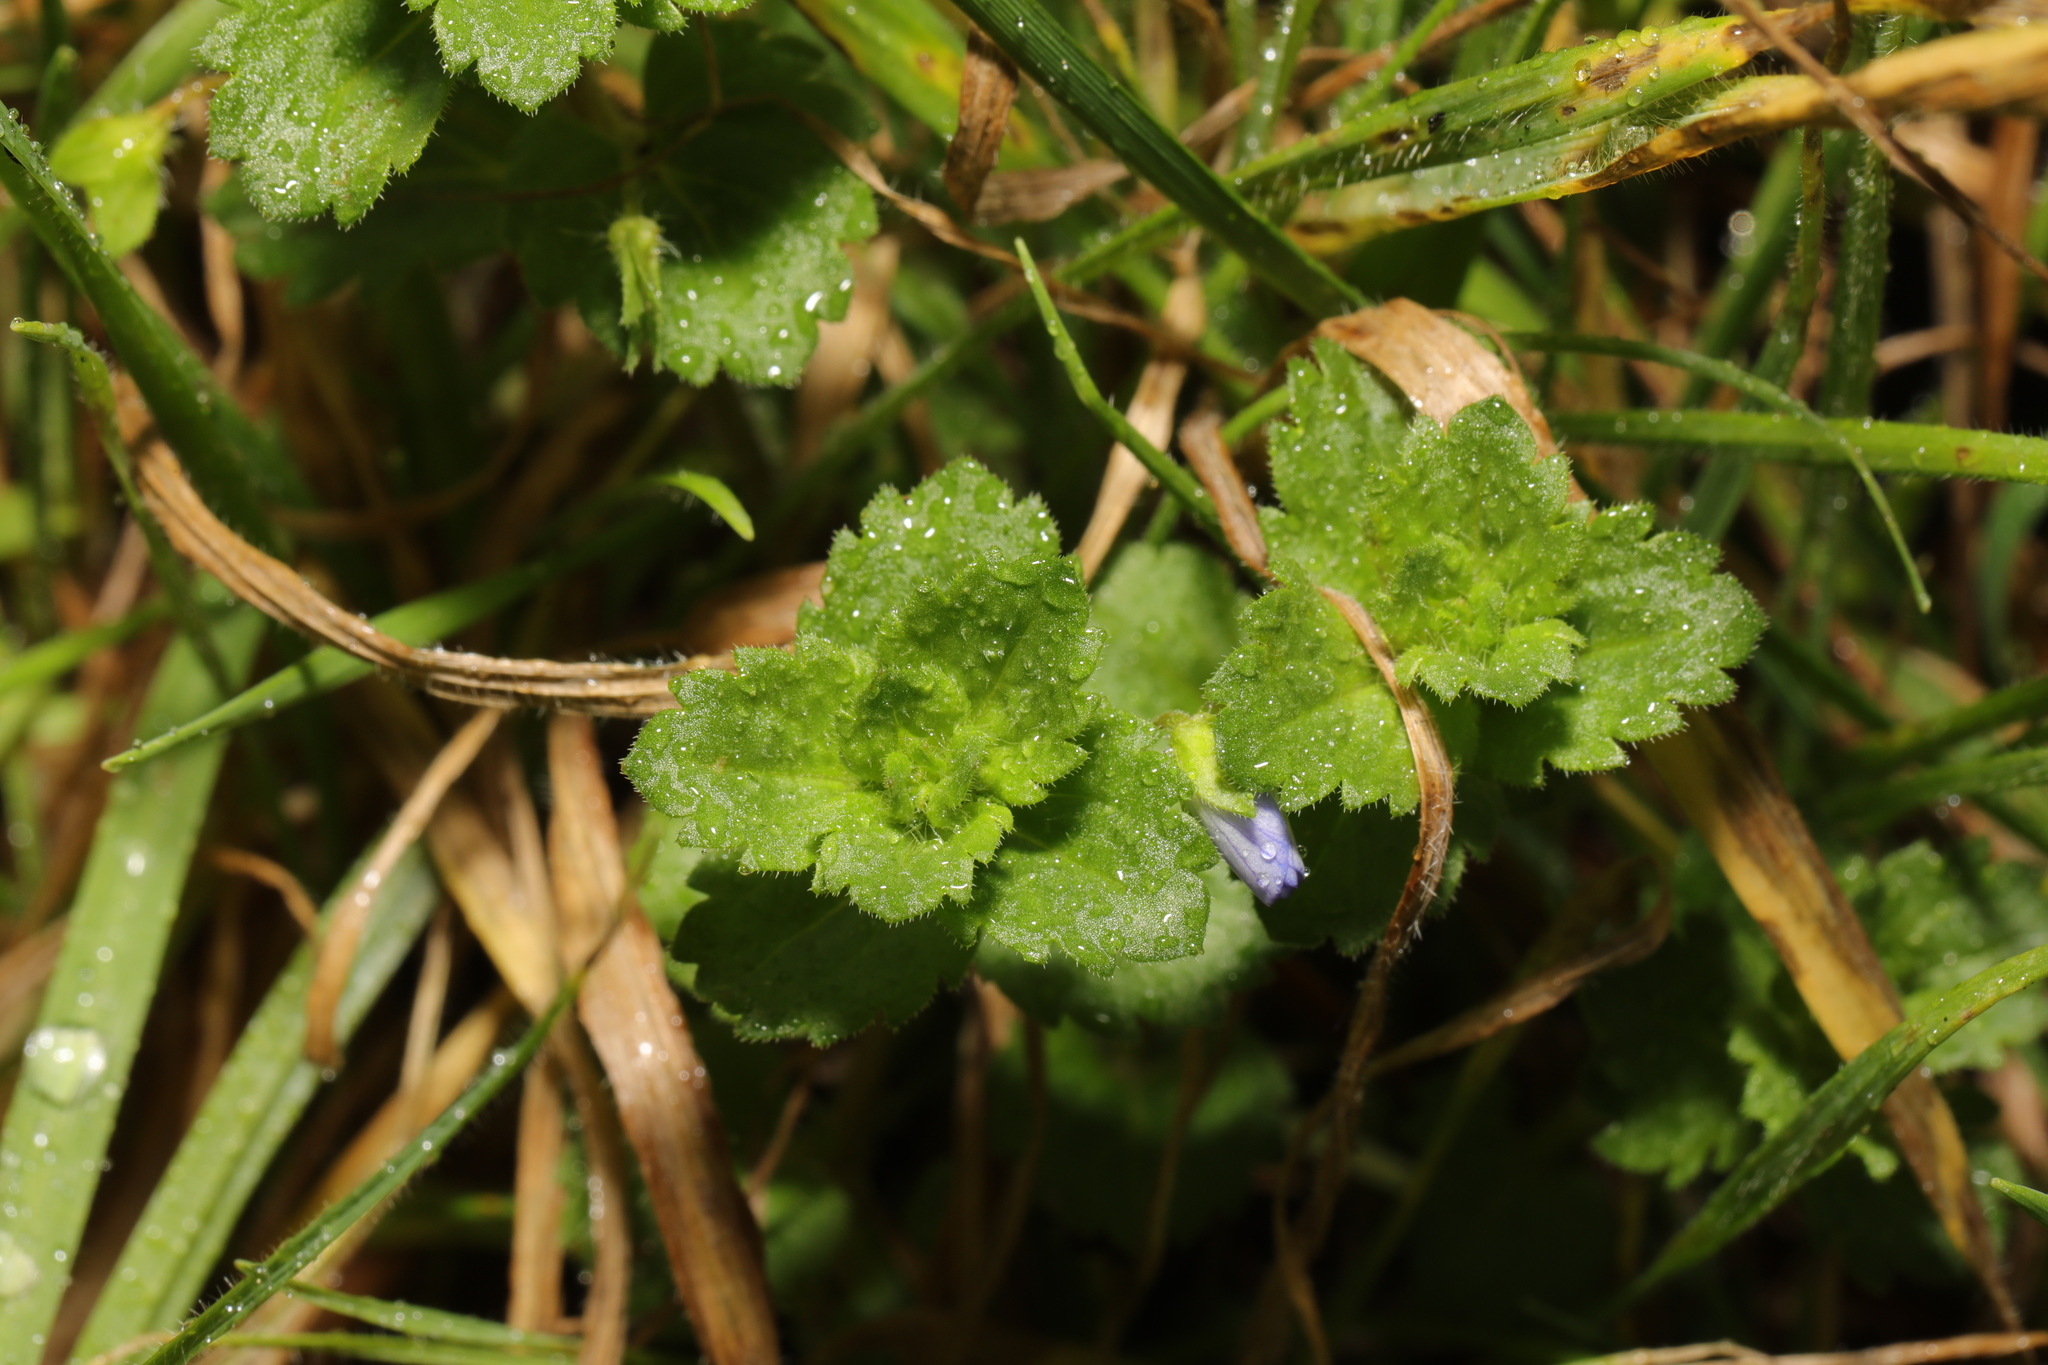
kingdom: Plantae
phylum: Tracheophyta
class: Magnoliopsida
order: Lamiales
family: Plantaginaceae
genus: Veronica
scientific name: Veronica persica
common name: Common field-speedwell
